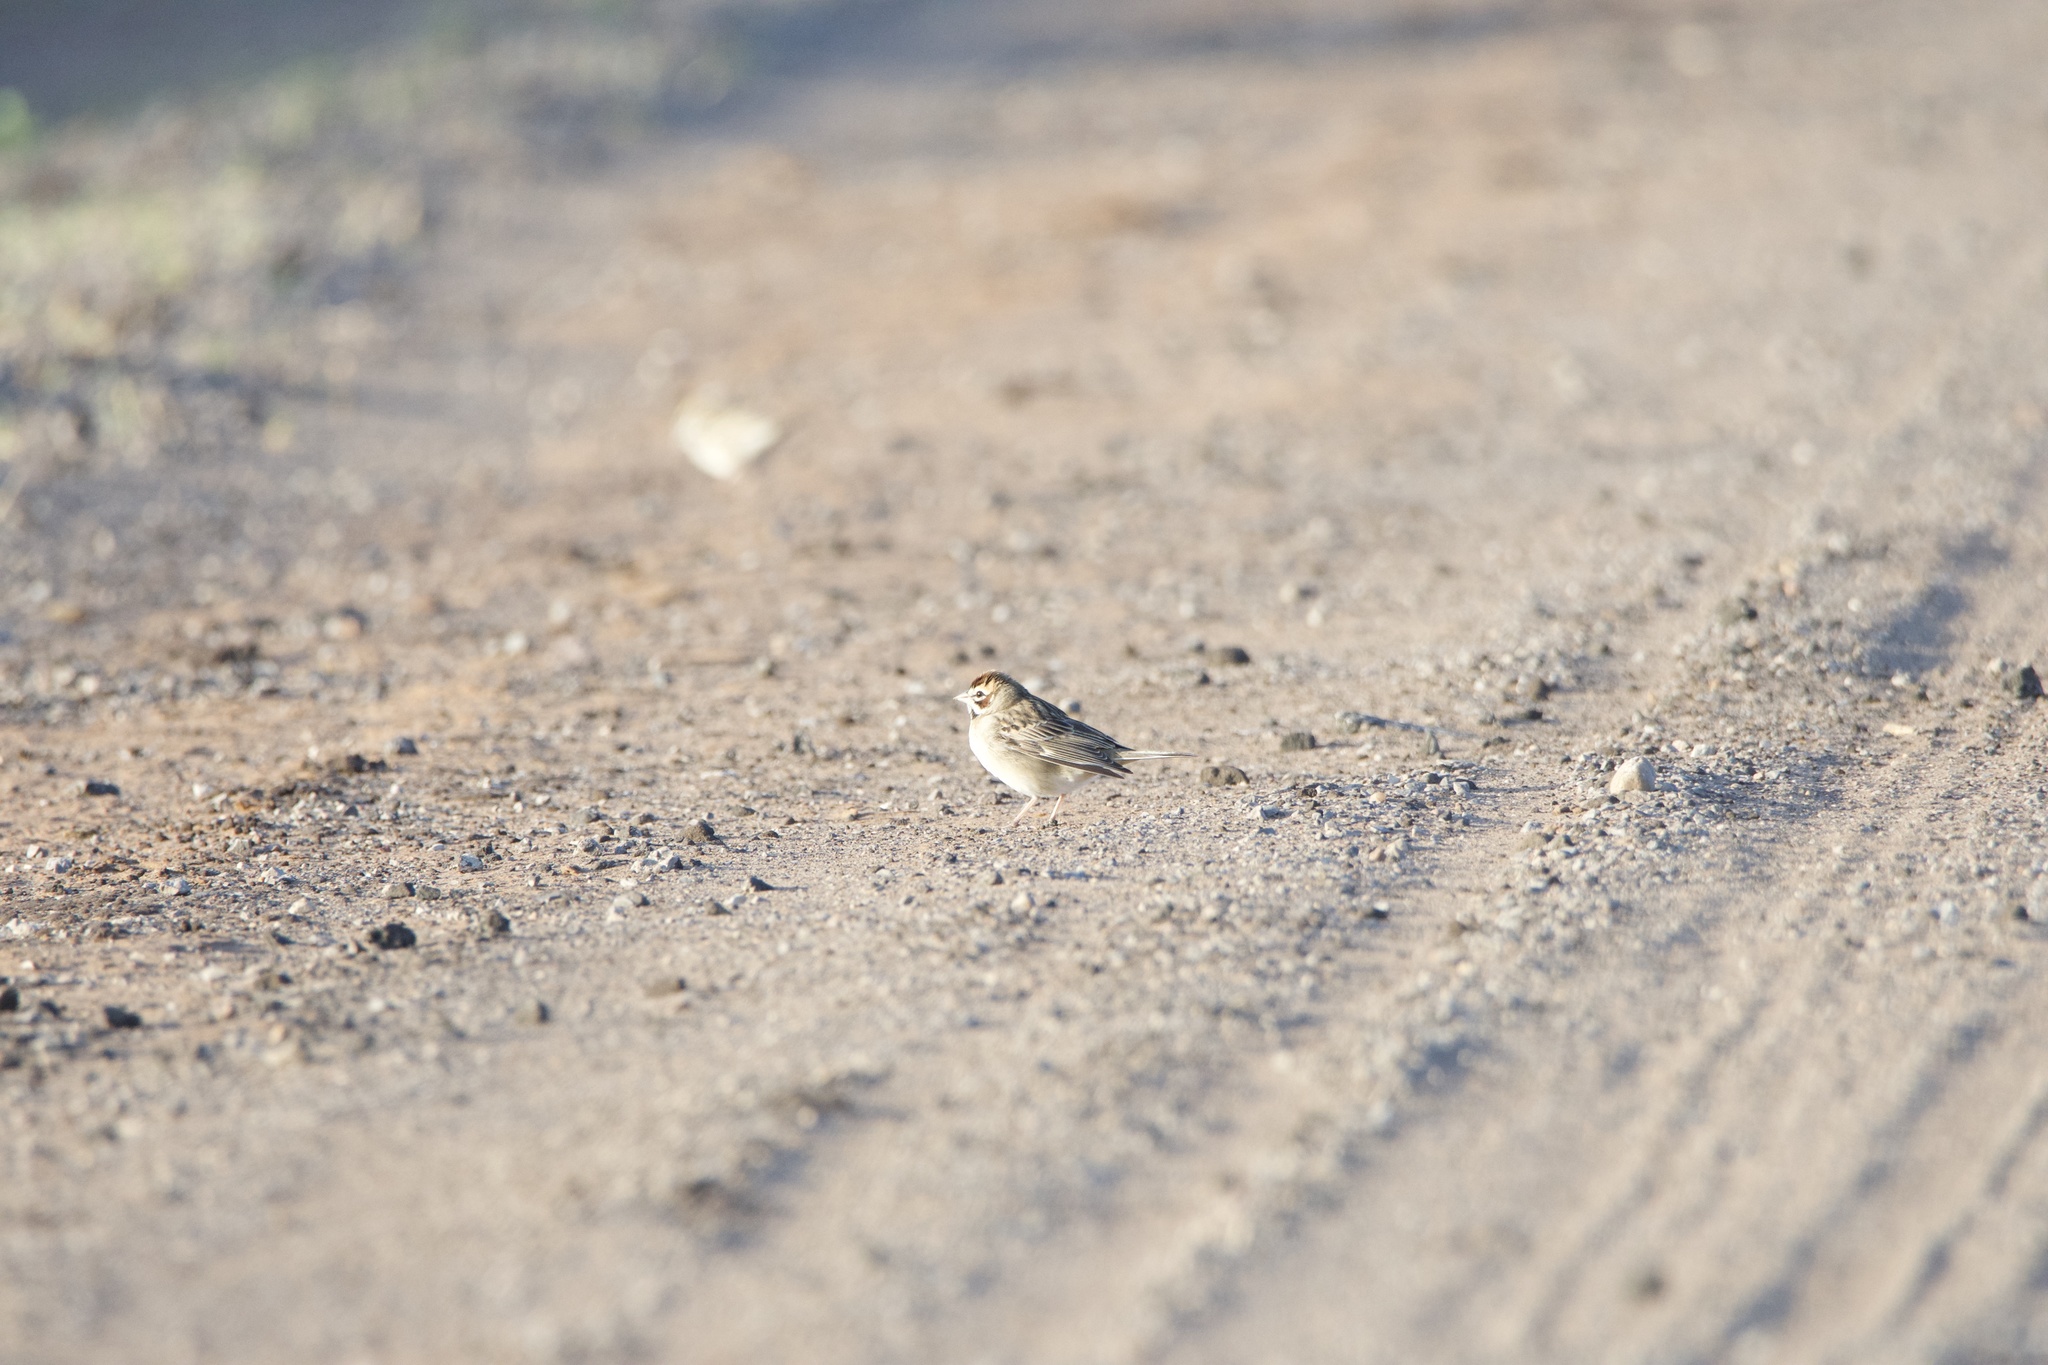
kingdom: Animalia
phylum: Chordata
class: Aves
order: Passeriformes
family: Passerellidae
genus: Chondestes
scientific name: Chondestes grammacus
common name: Lark sparrow
